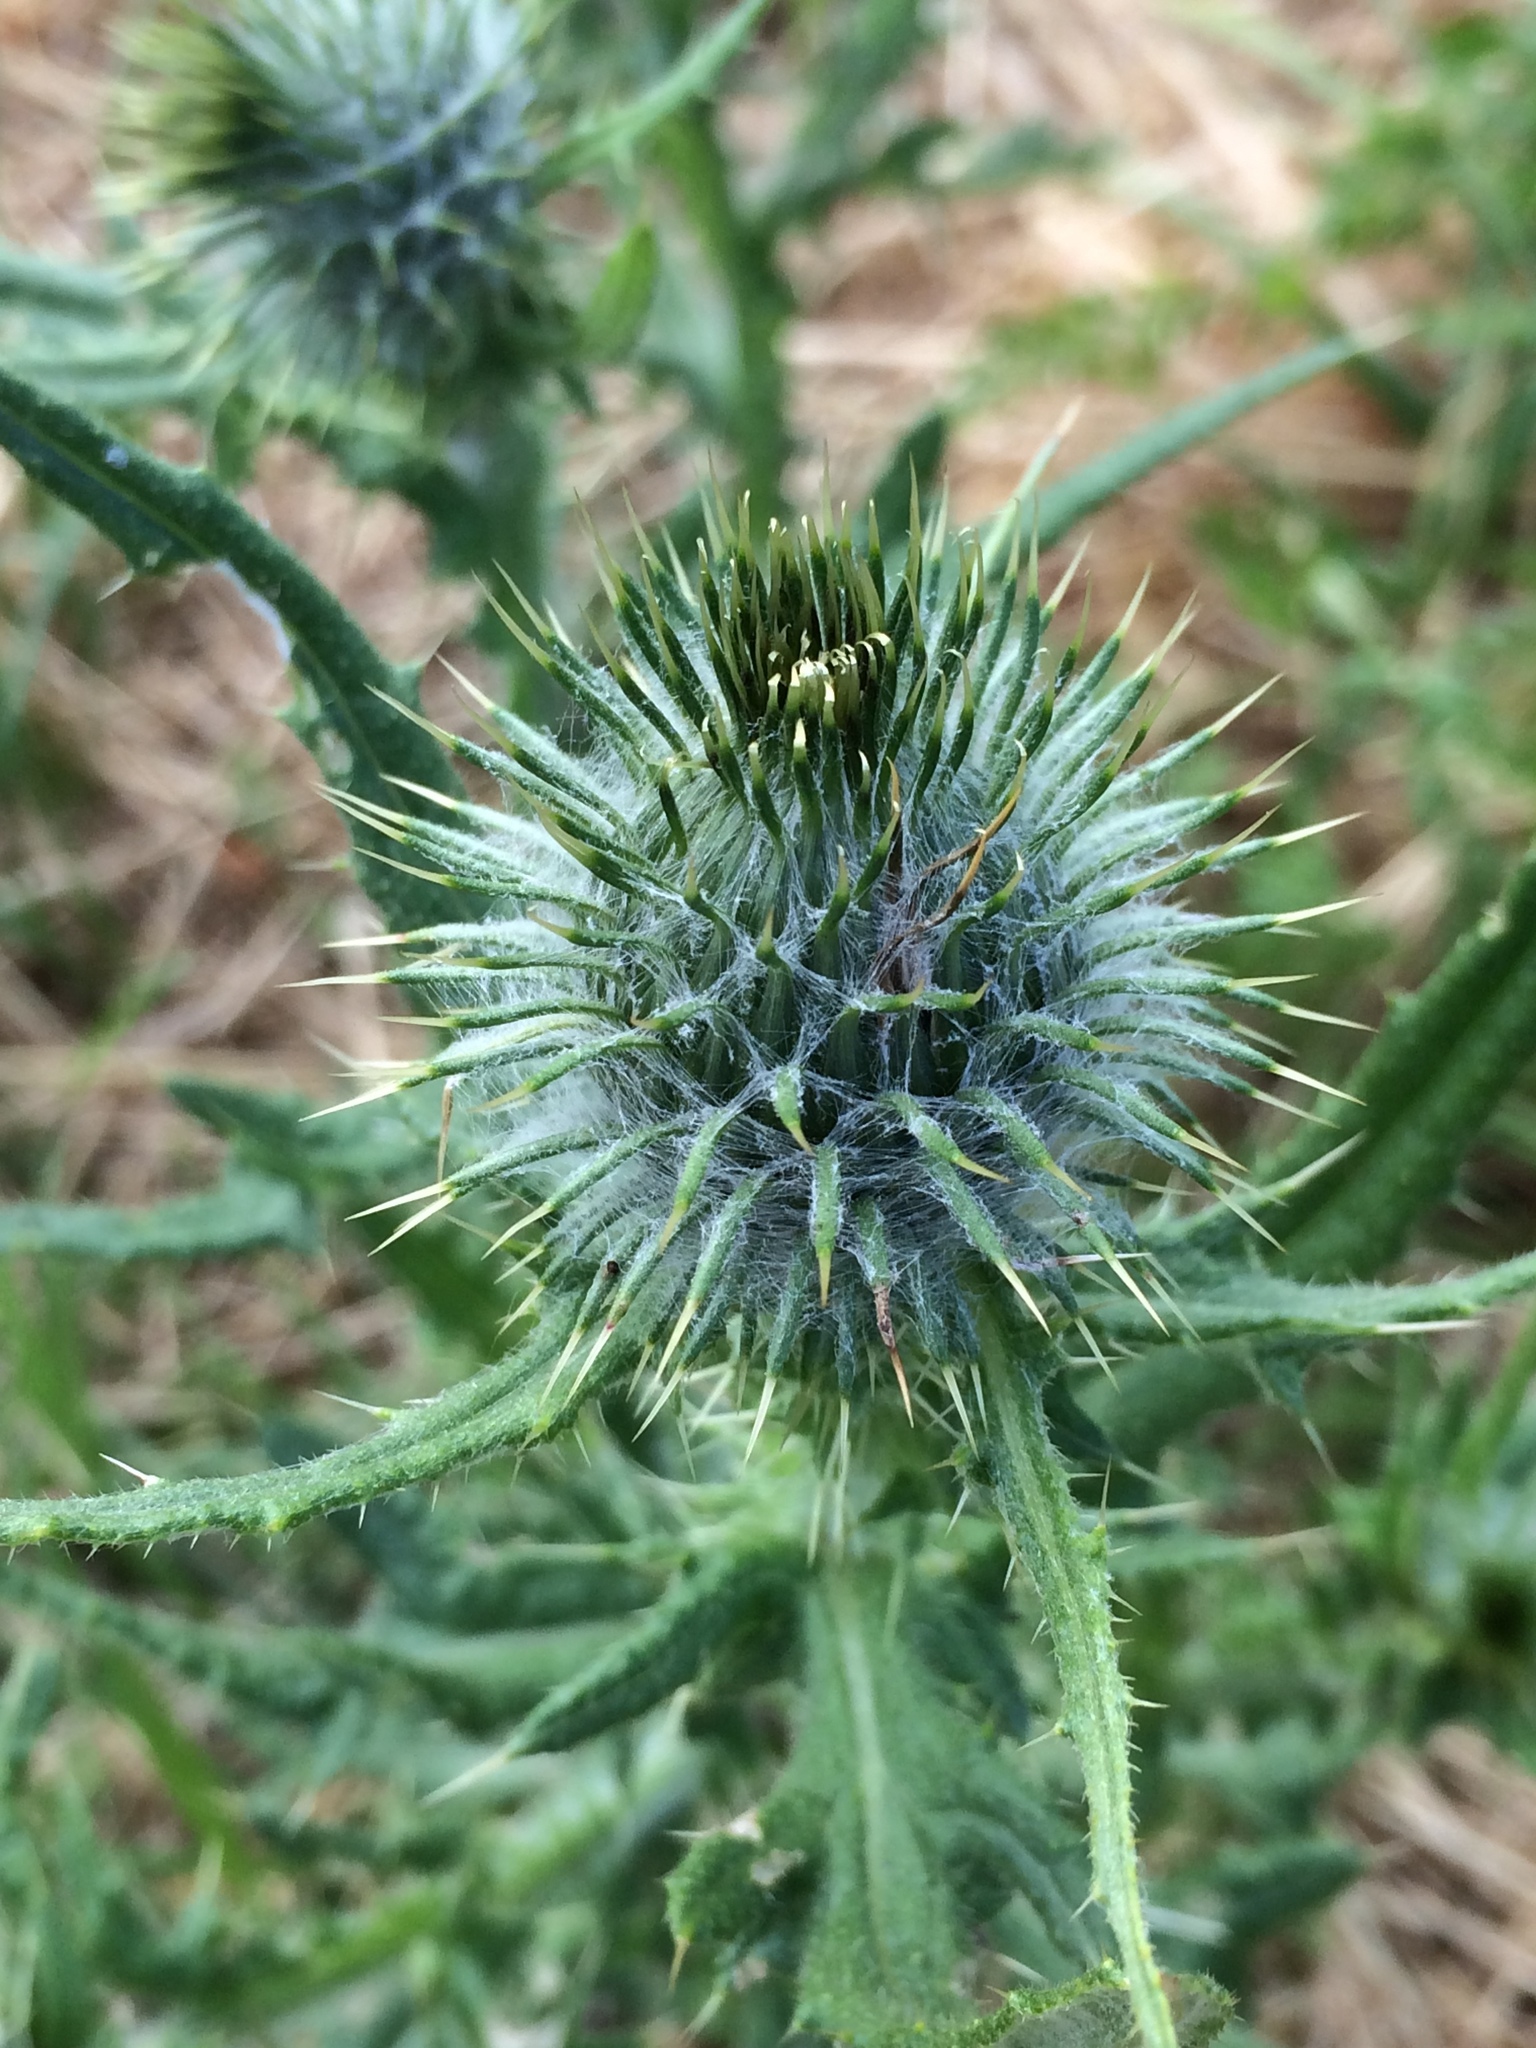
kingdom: Plantae
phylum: Tracheophyta
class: Magnoliopsida
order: Asterales
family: Asteraceae
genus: Cirsium
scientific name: Cirsium vulgare
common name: Bull thistle
